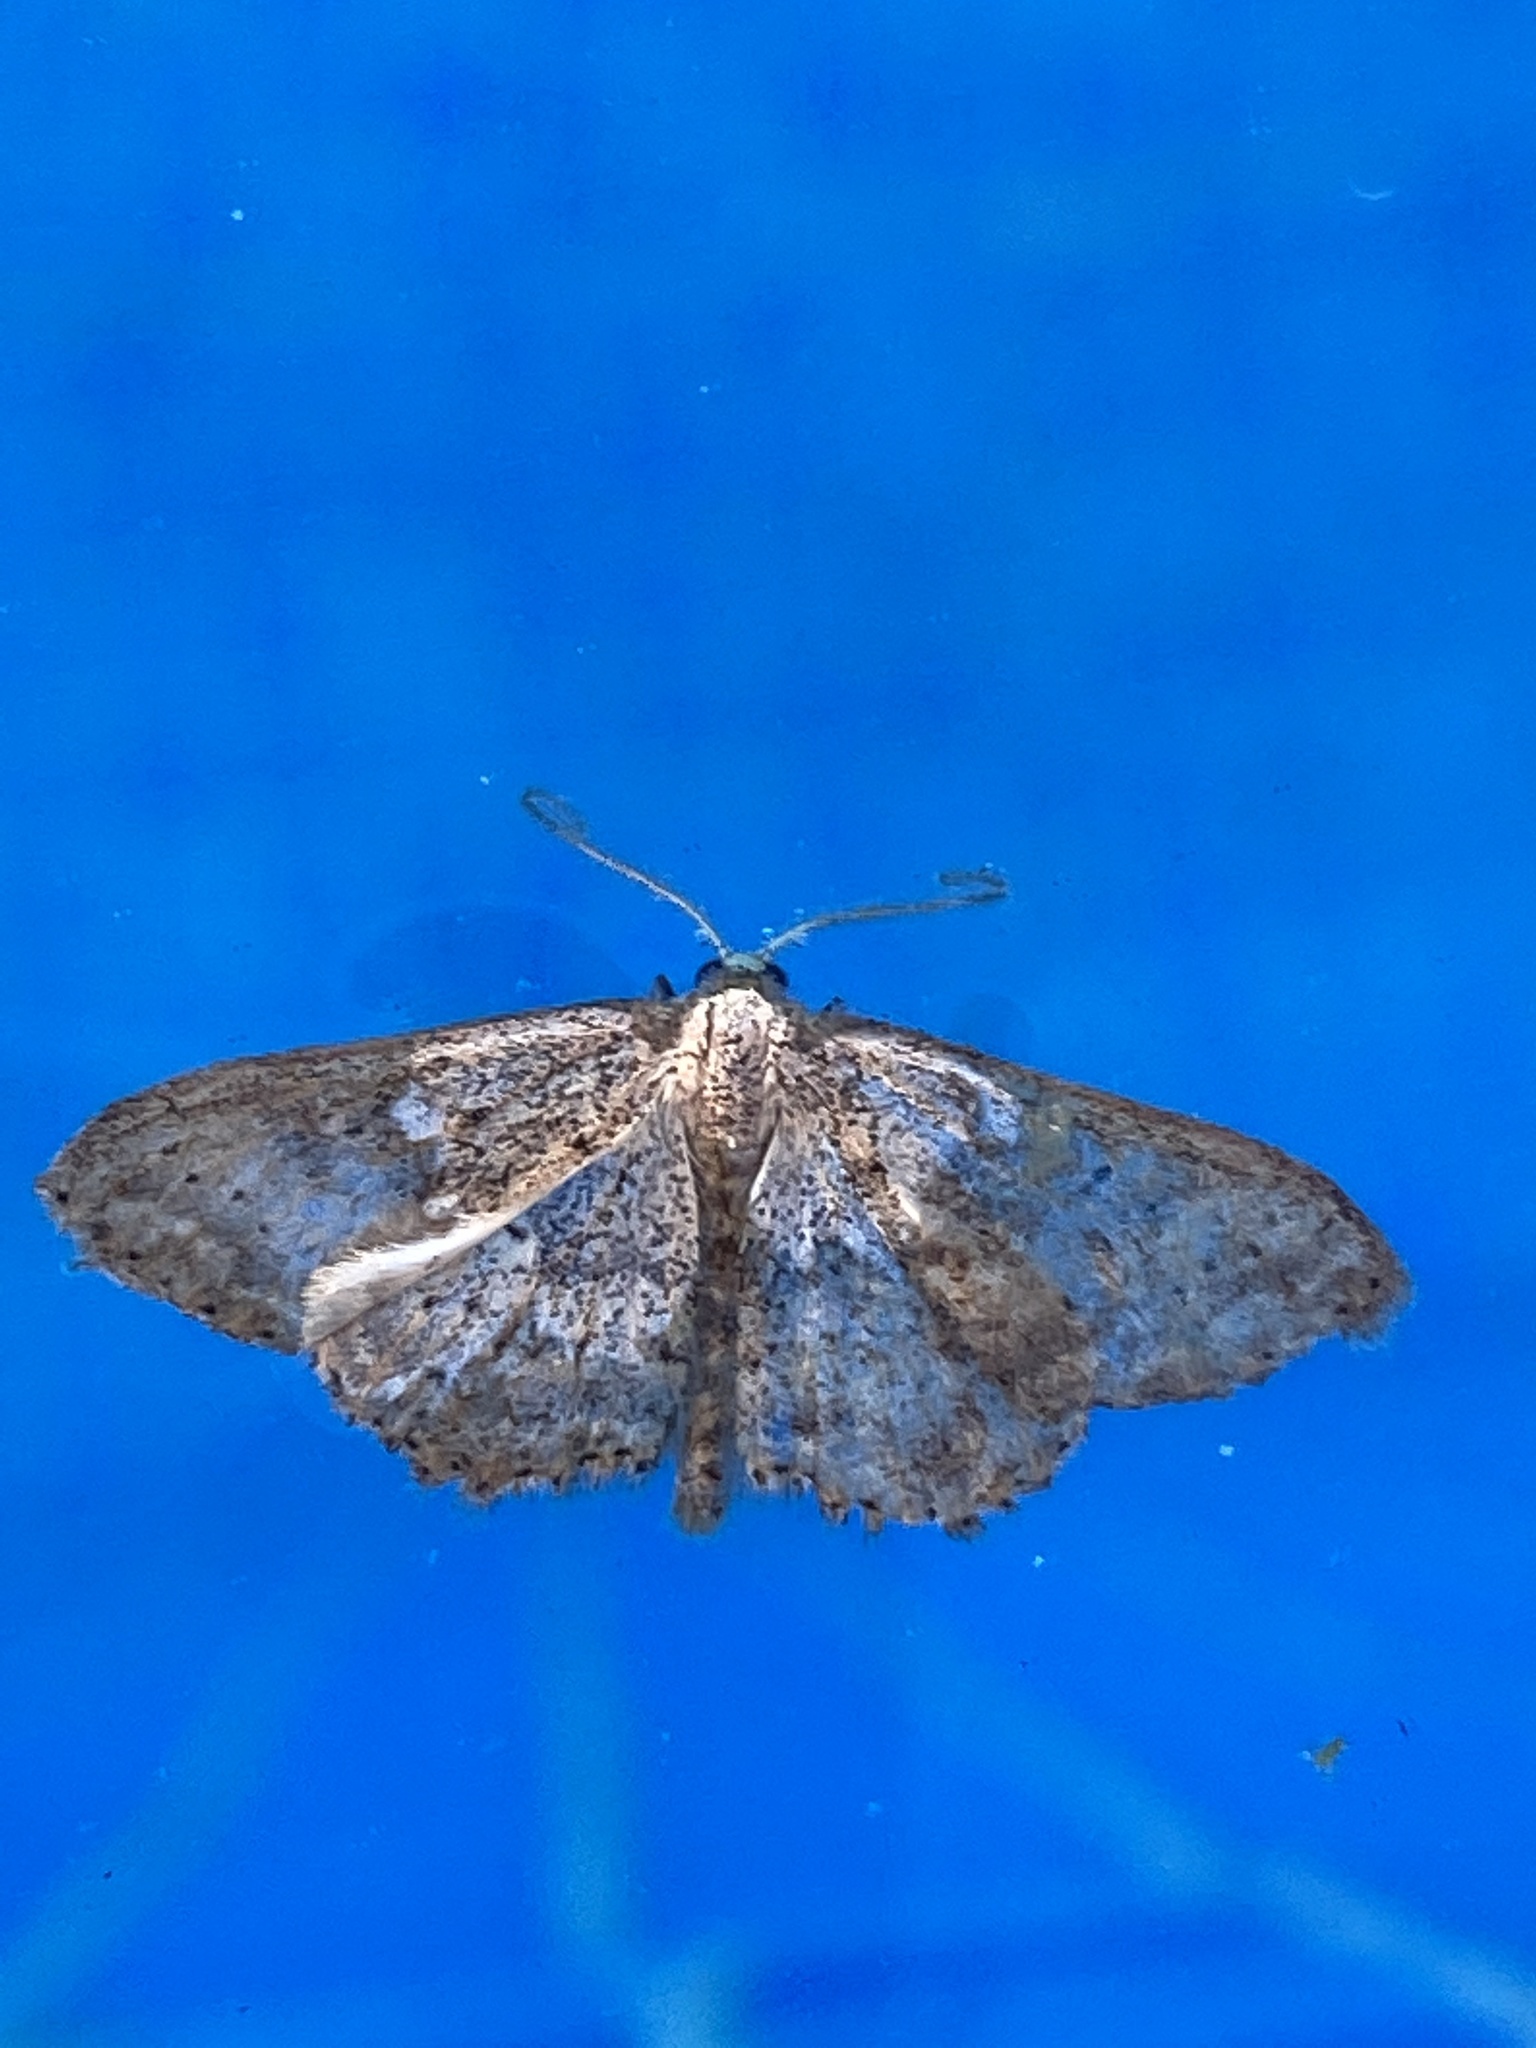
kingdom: Animalia
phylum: Arthropoda
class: Insecta
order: Lepidoptera
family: Geometridae
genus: Scopula
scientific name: Scopula guancharia
